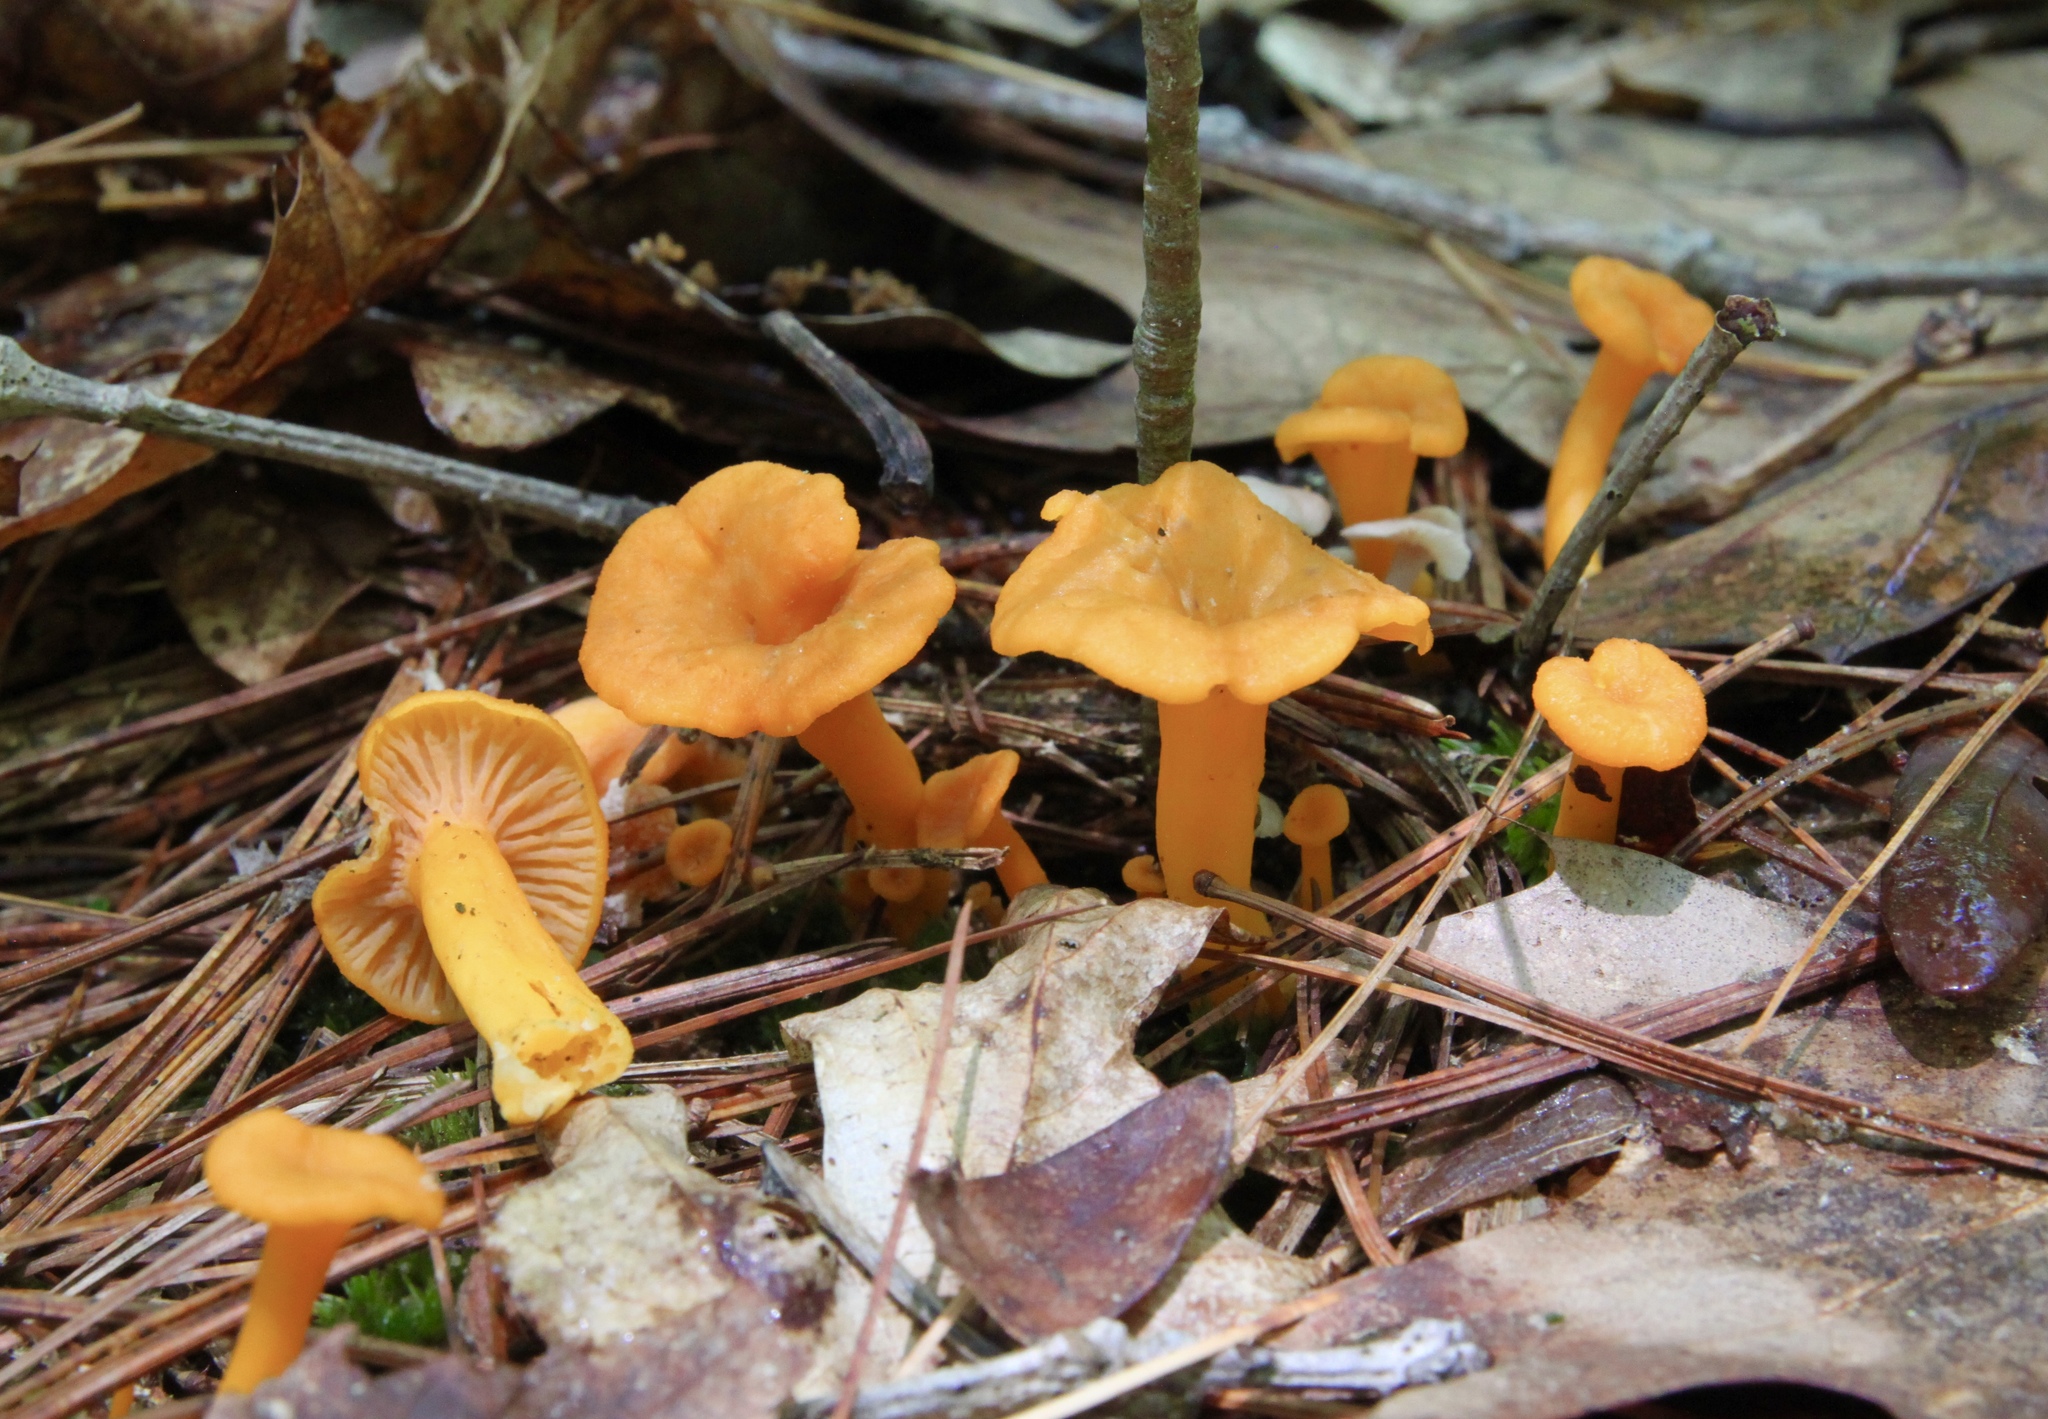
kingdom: Fungi
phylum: Basidiomycota
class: Agaricomycetes
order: Cantharellales
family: Hydnaceae
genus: Craterellus
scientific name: Craterellus ignicolor
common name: Flame chanterelle
